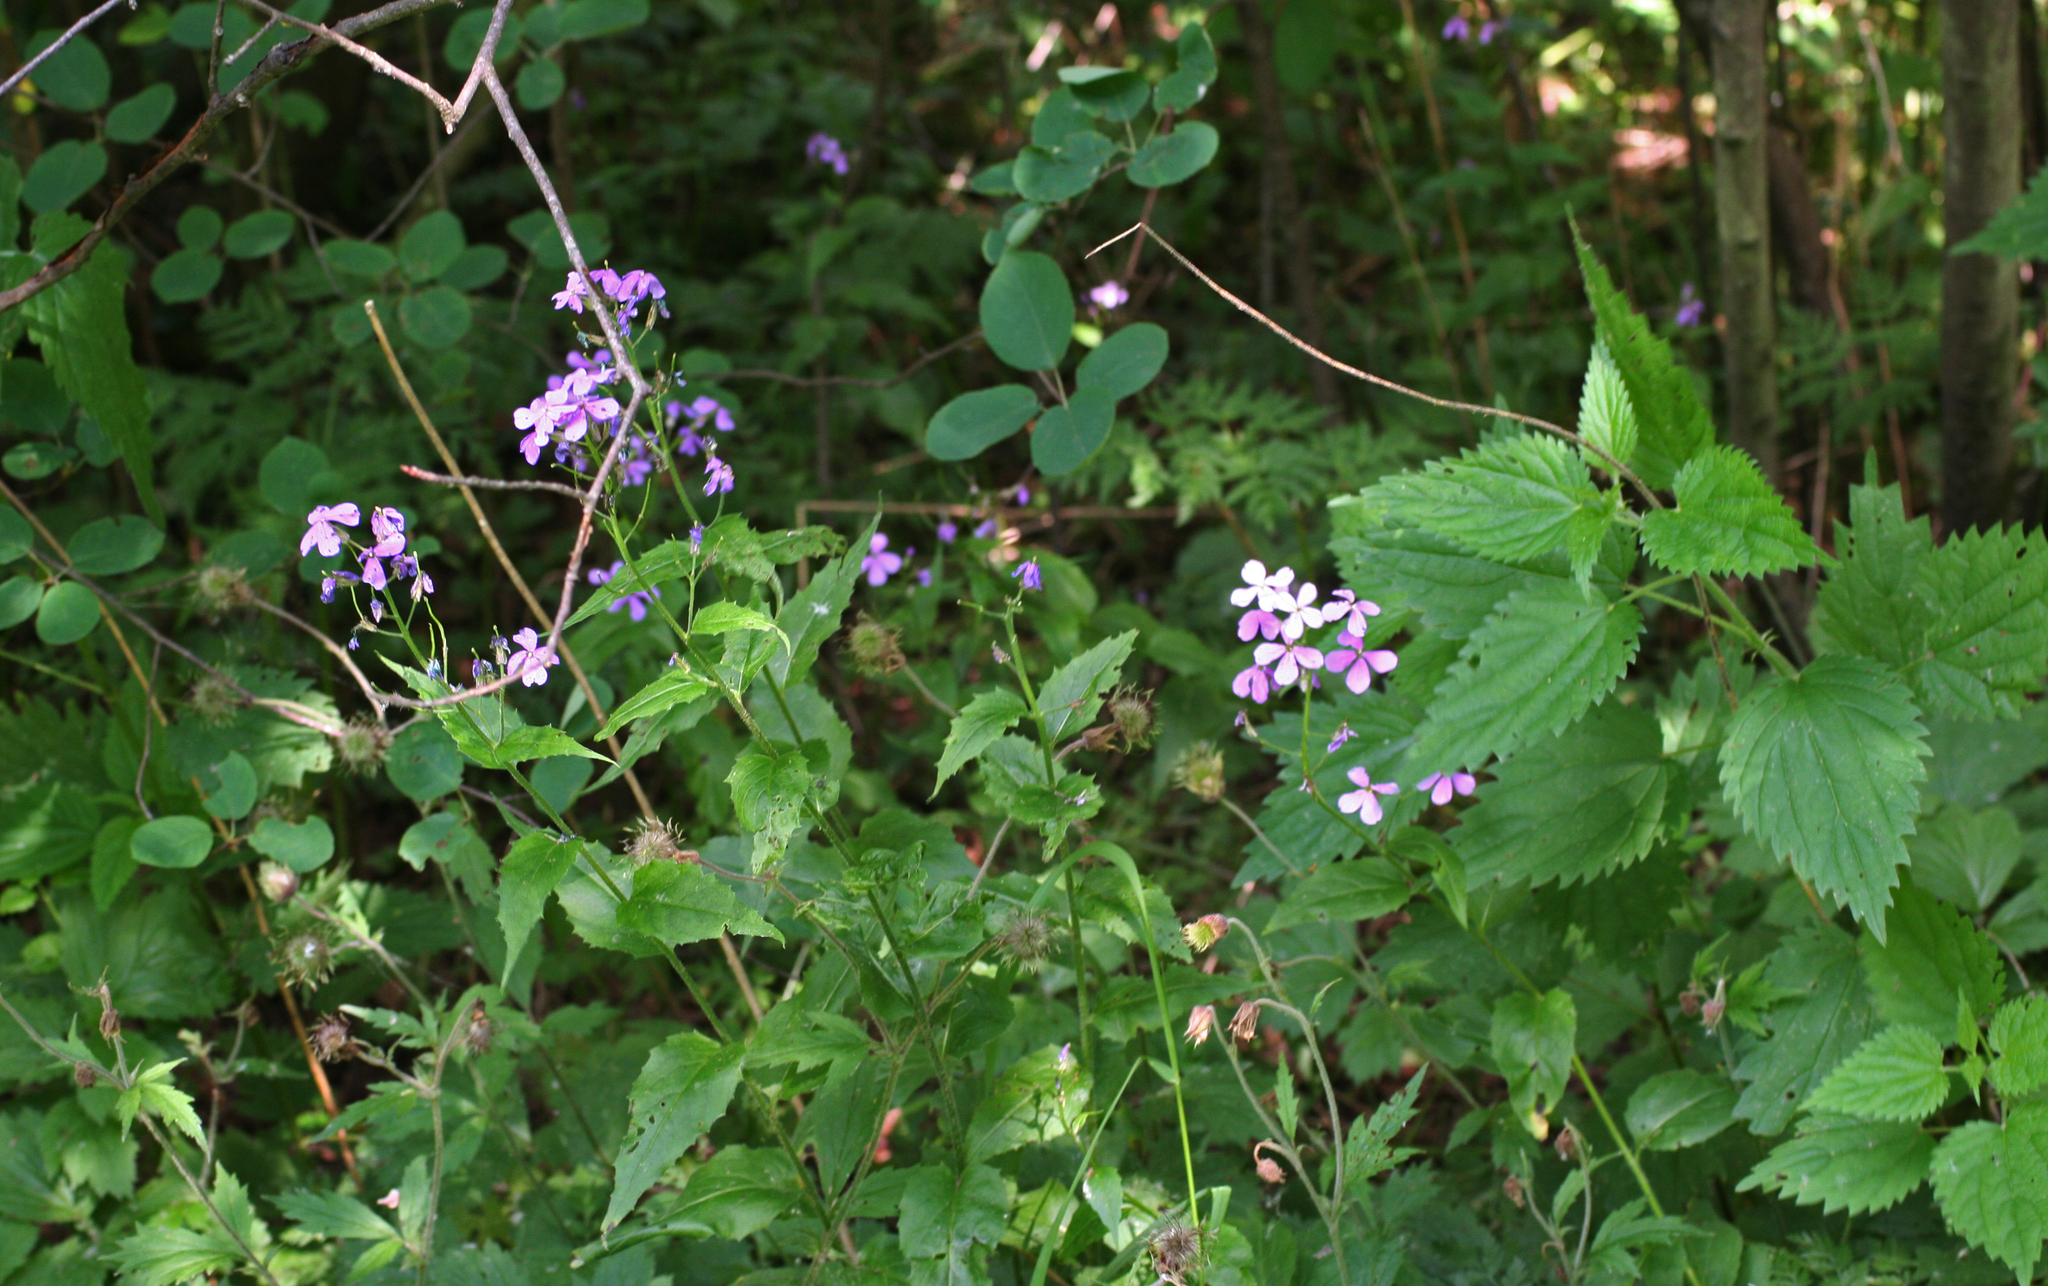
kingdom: Plantae
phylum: Tracheophyta
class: Magnoliopsida
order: Brassicales
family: Brassicaceae
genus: Hesperis
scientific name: Hesperis matronalis
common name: Dame's-violet
